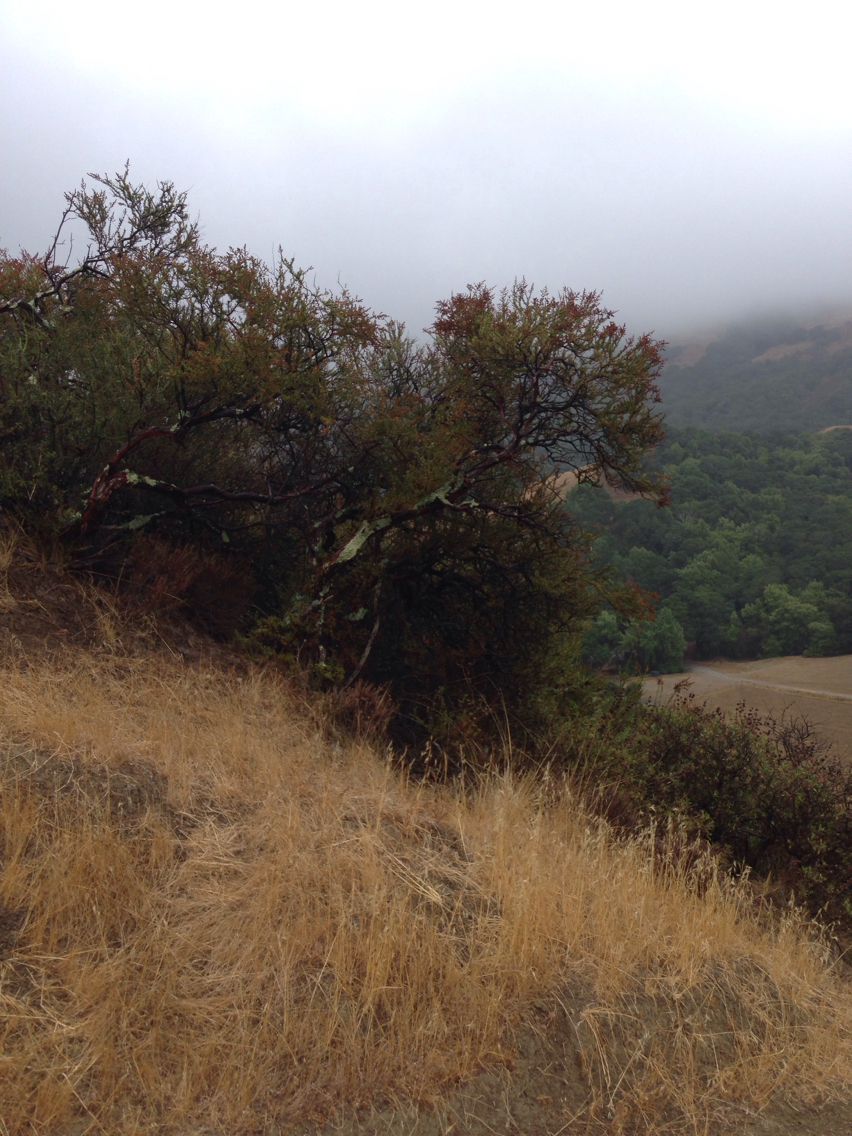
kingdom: Plantae
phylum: Tracheophyta
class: Magnoliopsida
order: Rosales
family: Rosaceae
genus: Adenostoma
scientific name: Adenostoma fasciculatum
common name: Chamise
